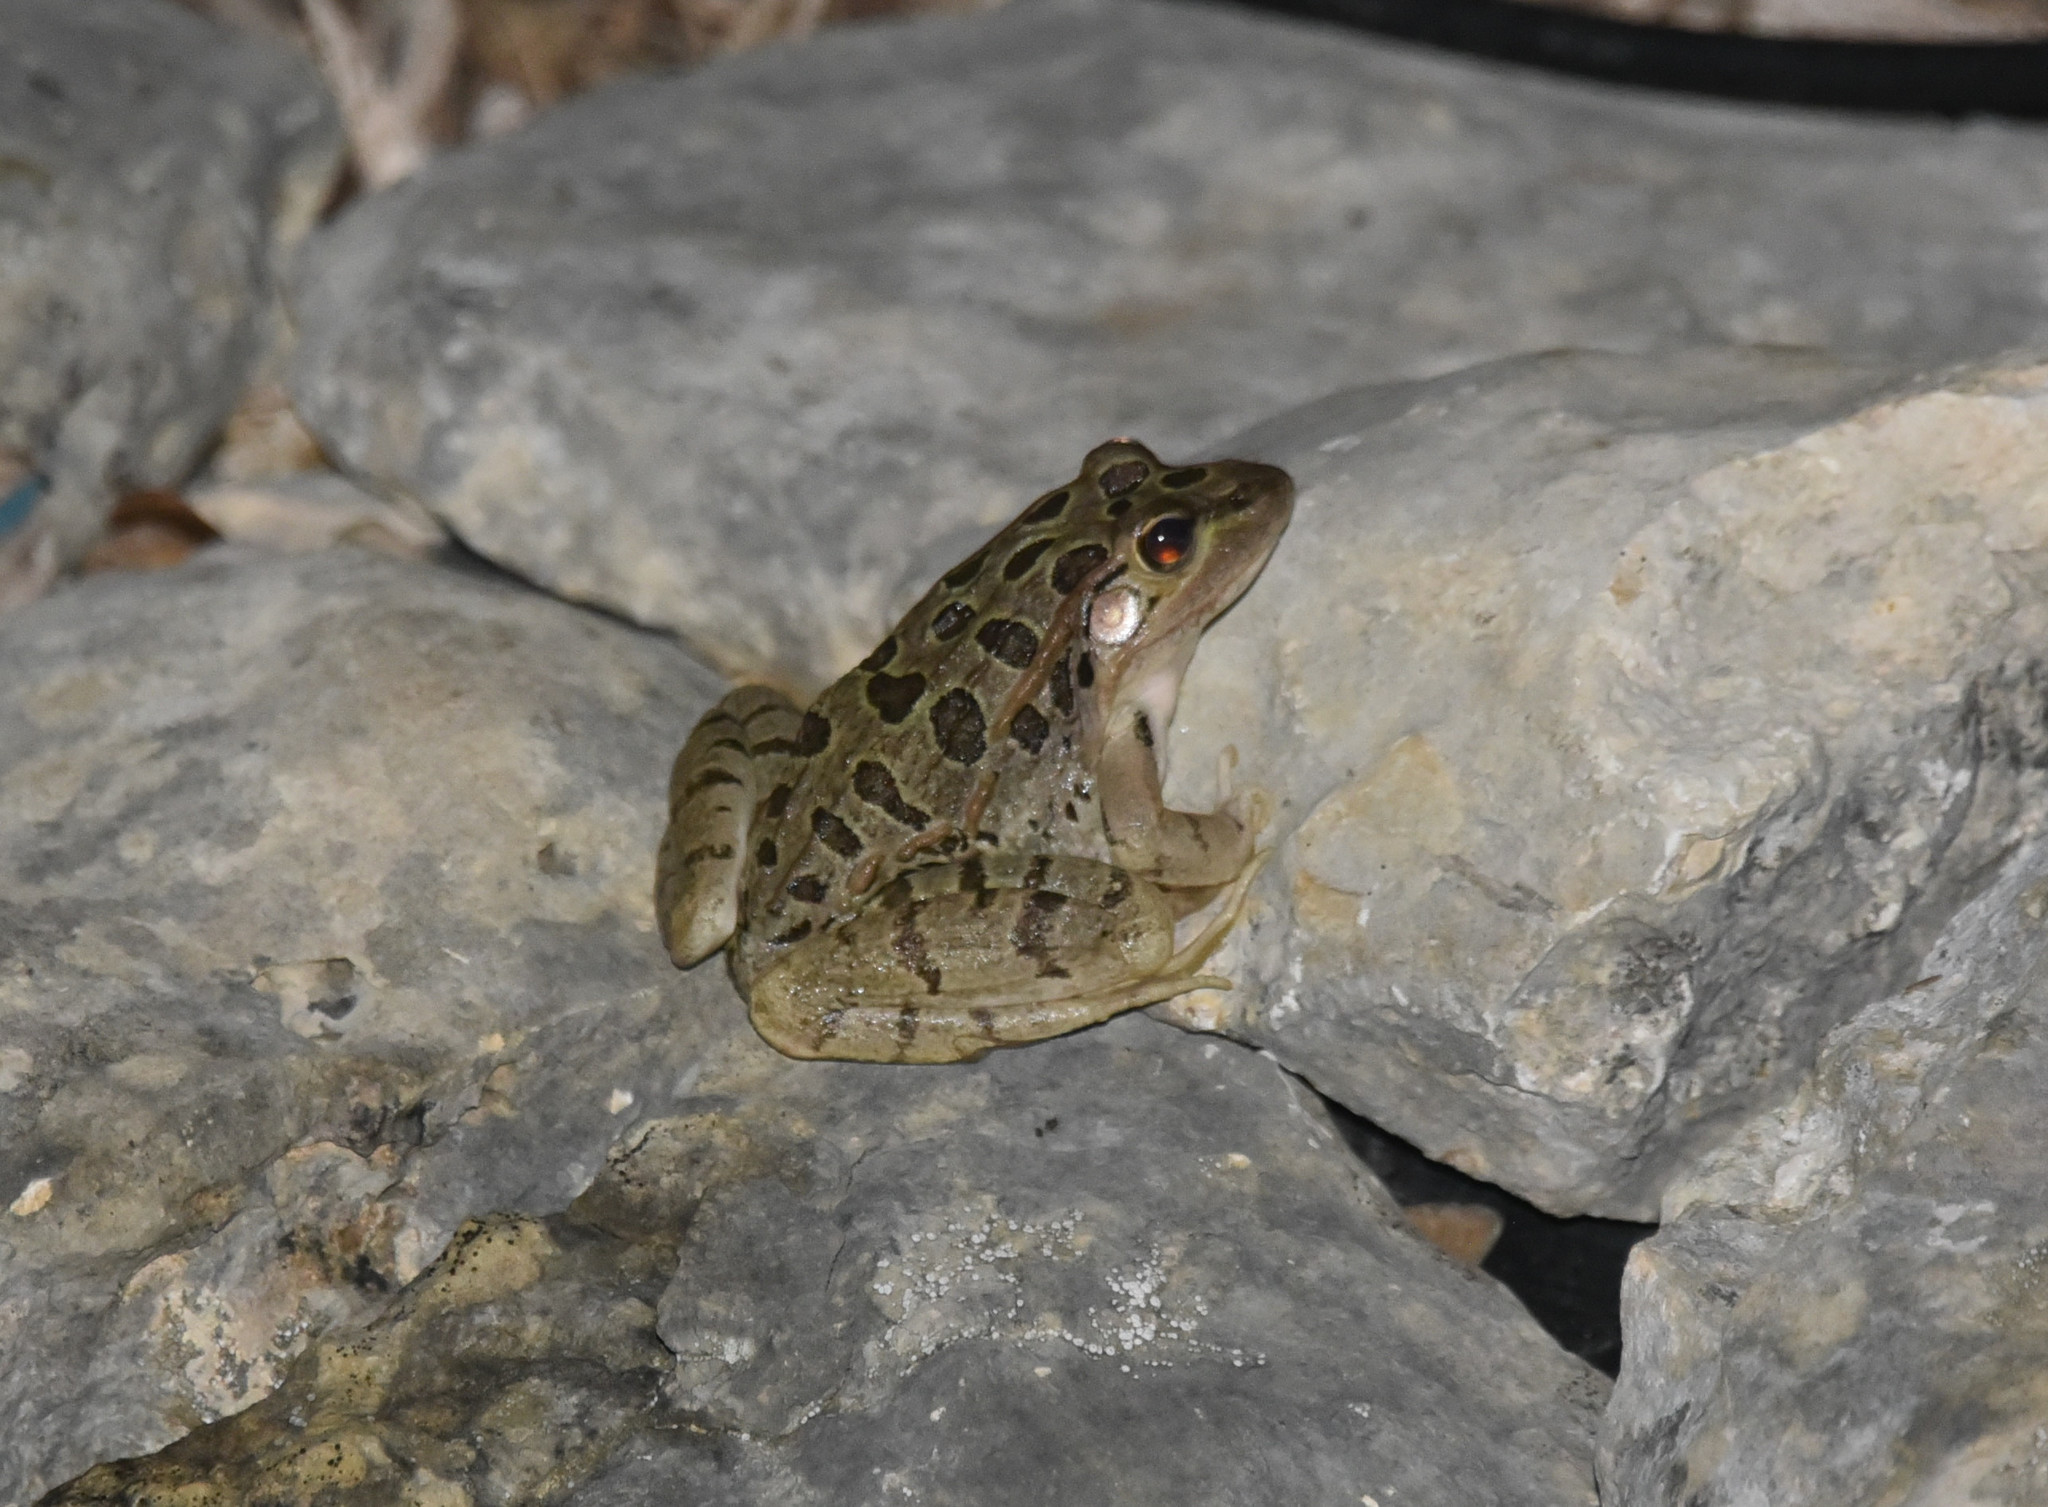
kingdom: Animalia
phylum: Chordata
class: Amphibia
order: Anura
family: Ranidae
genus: Lithobates
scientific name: Lithobates berlandieri
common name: Rio grande leopard frog
